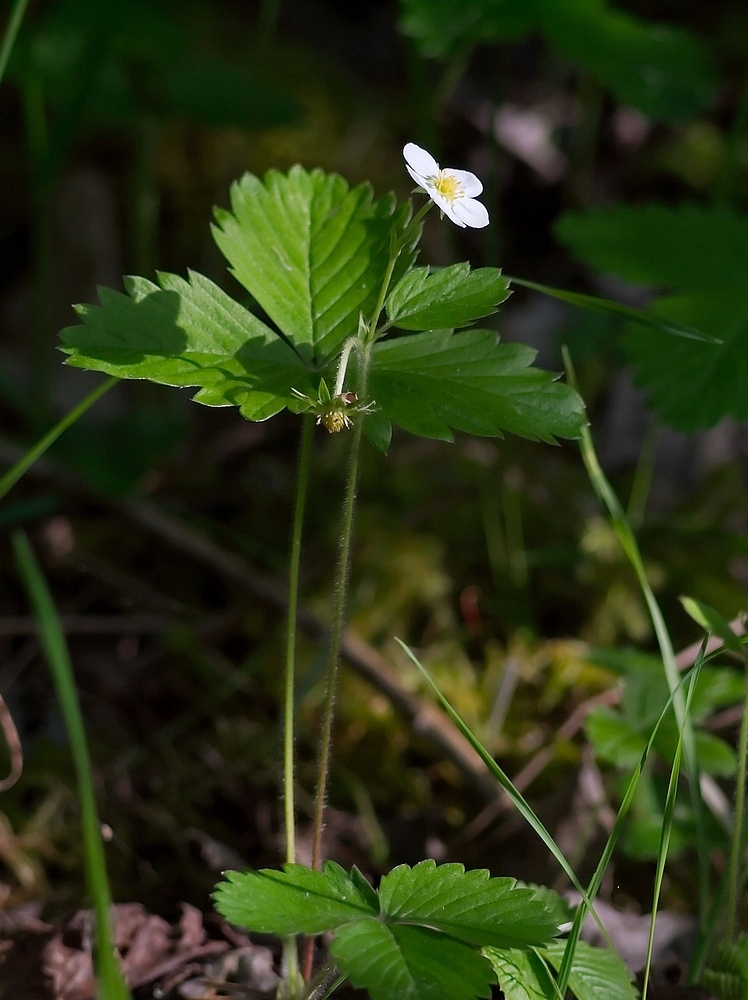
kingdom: Plantae
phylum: Tracheophyta
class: Magnoliopsida
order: Rosales
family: Rosaceae
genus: Fragaria
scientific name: Fragaria vesca
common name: Wild strawberry
